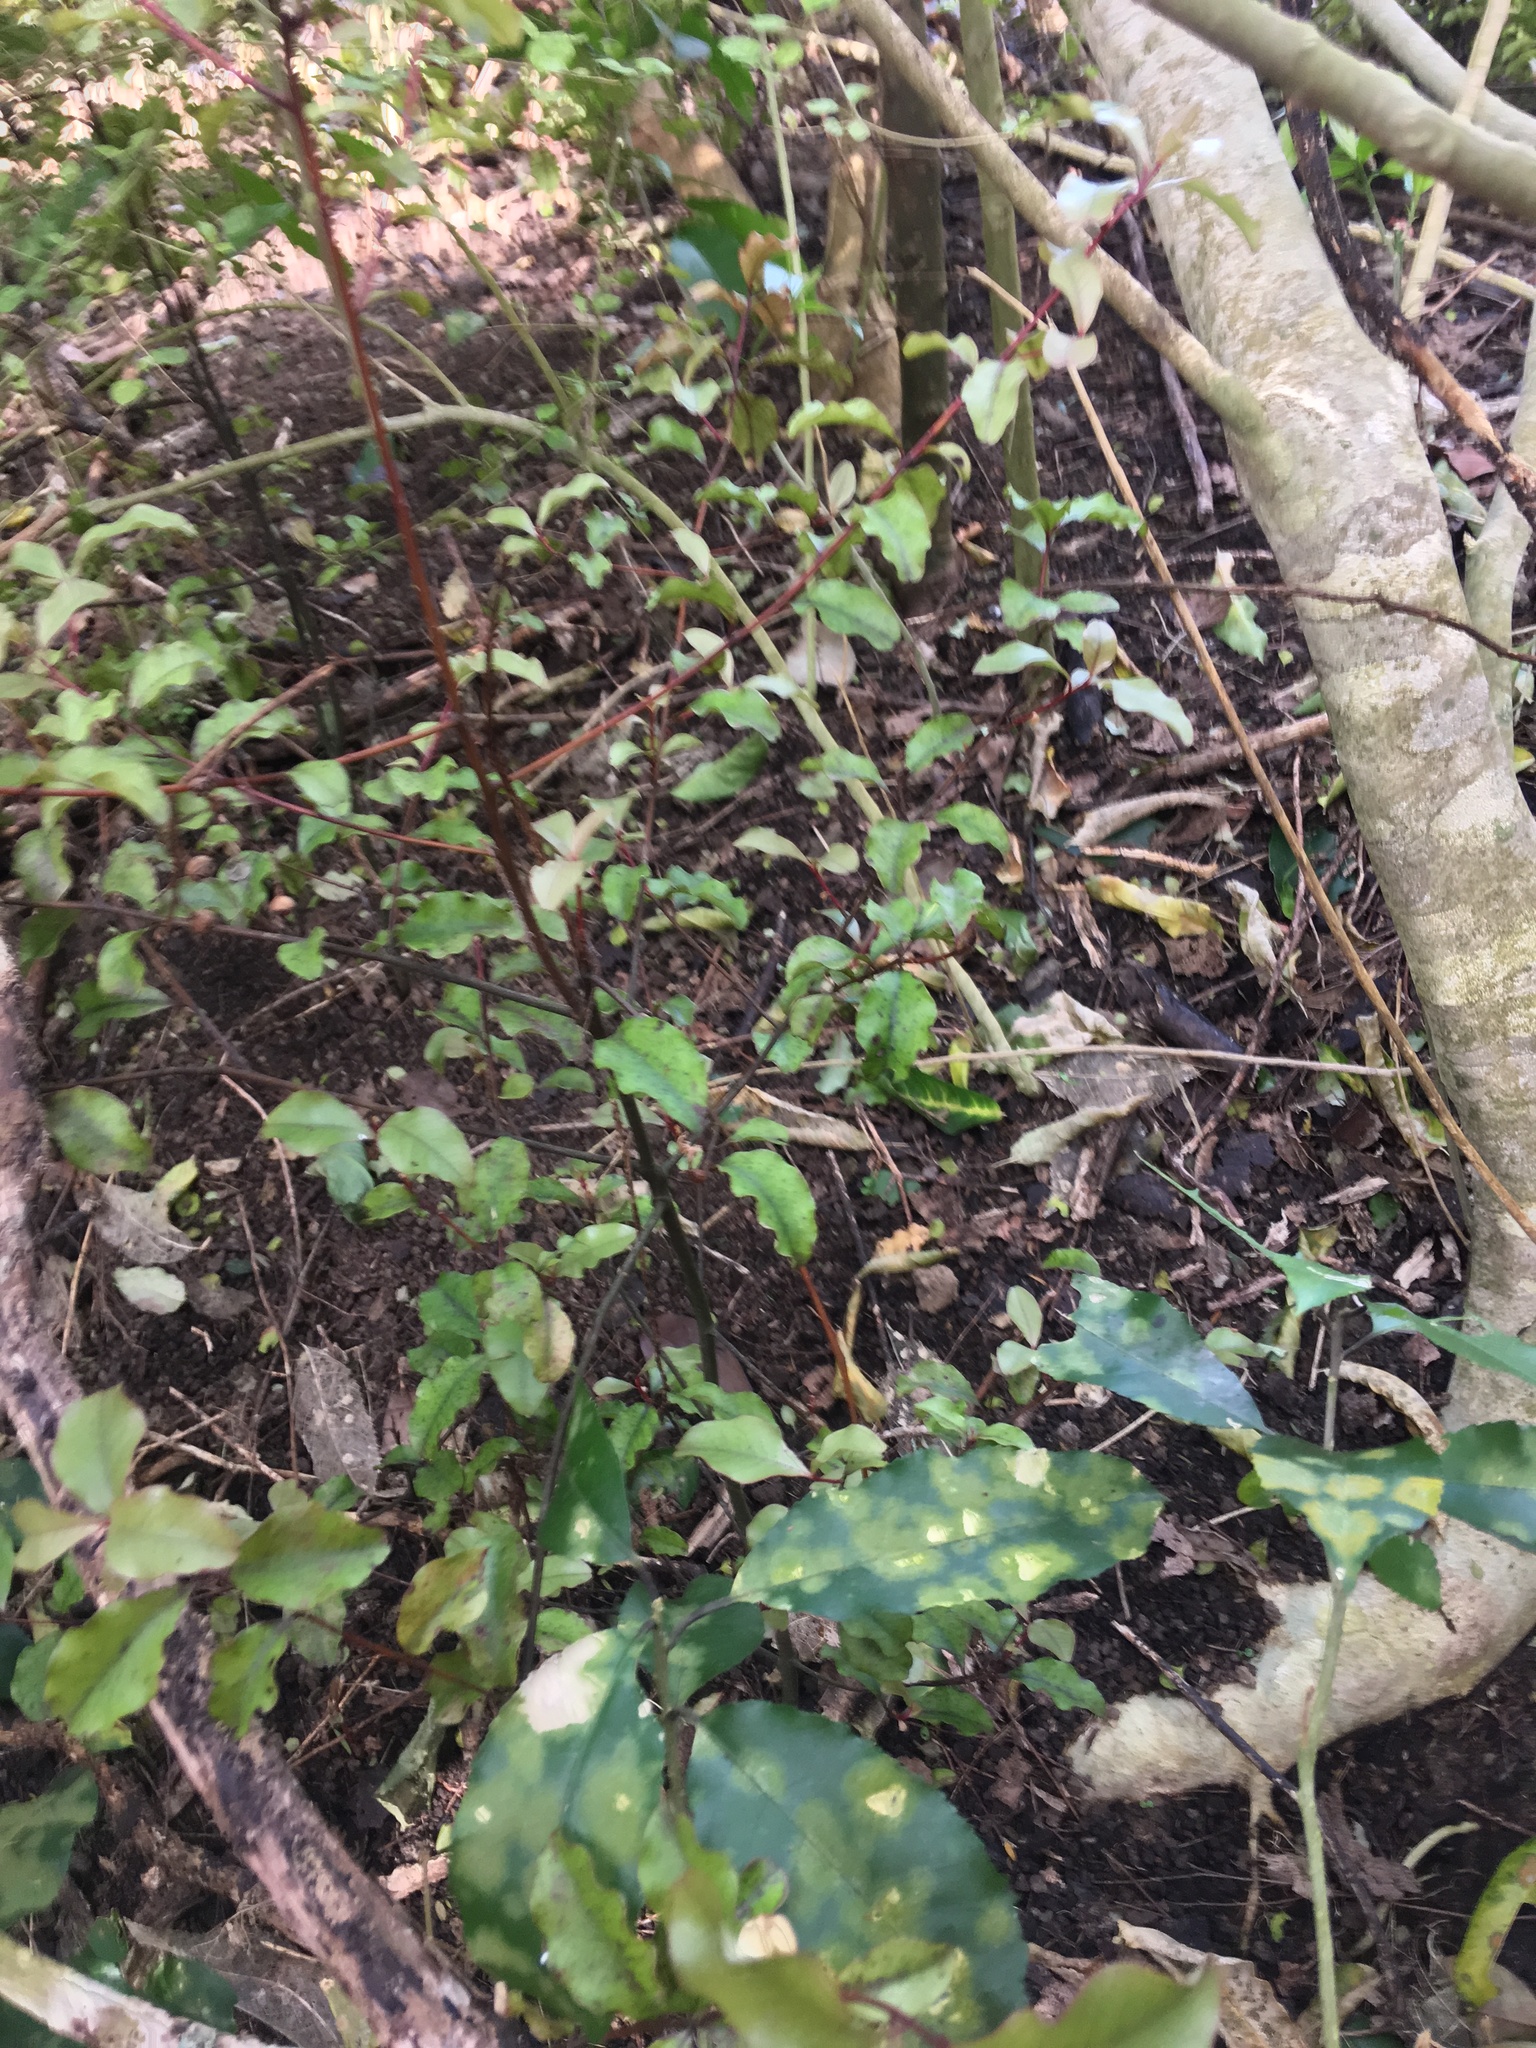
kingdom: Plantae
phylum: Tracheophyta
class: Magnoliopsida
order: Ericales
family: Primulaceae
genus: Myrsine
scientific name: Myrsine australis
